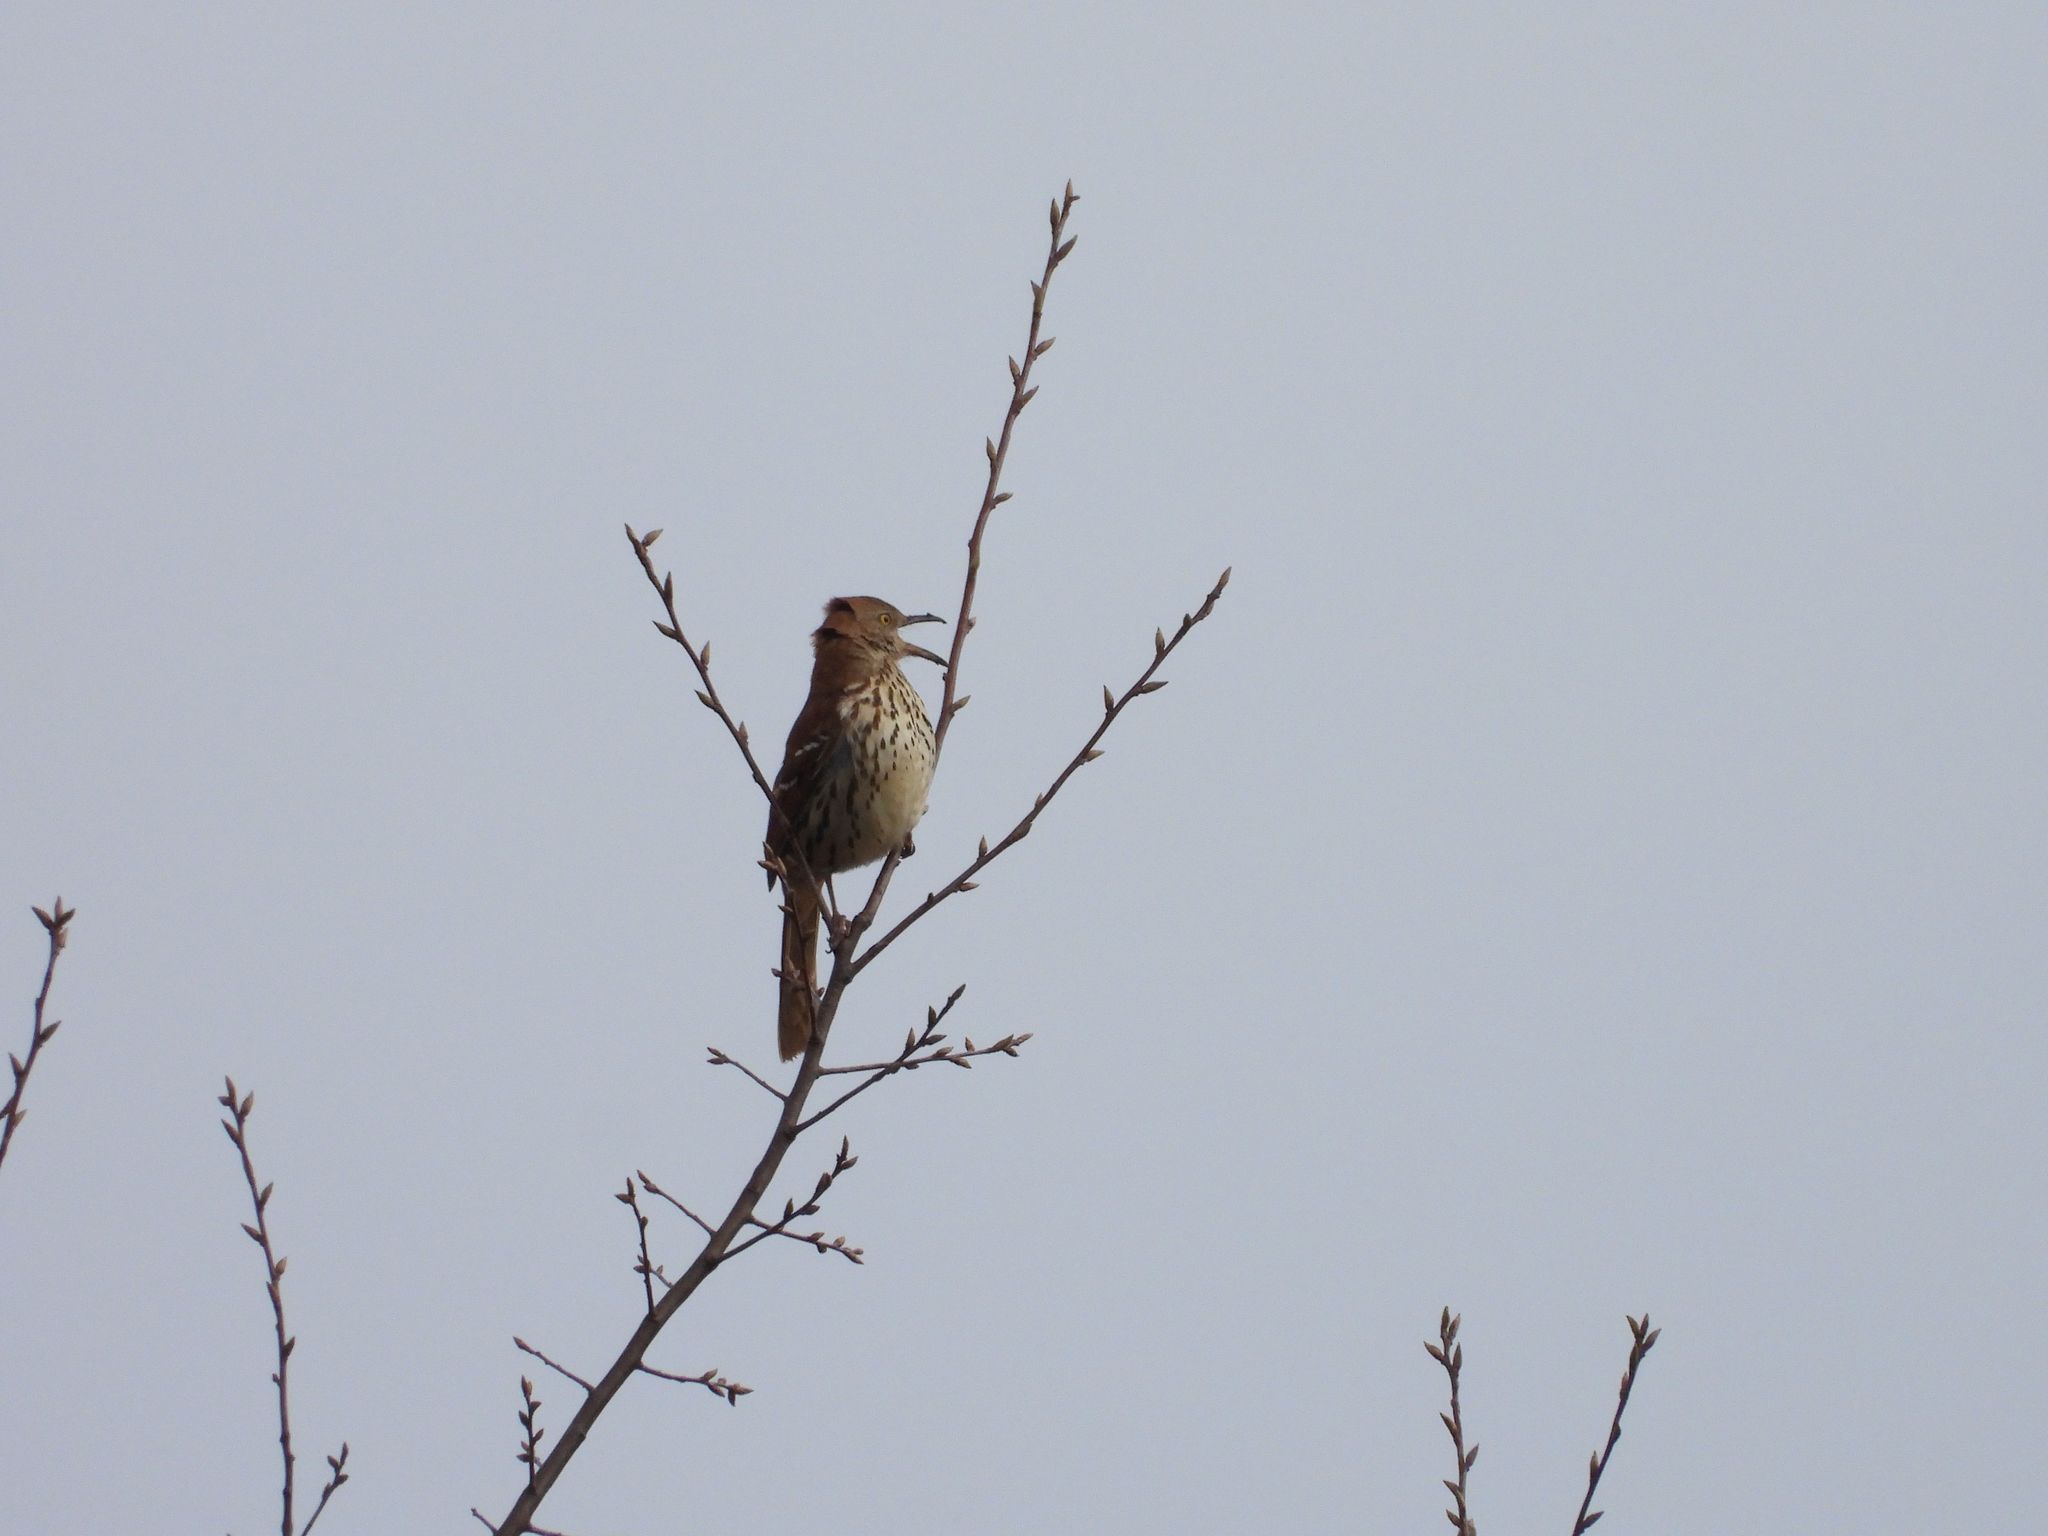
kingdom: Animalia
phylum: Chordata
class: Aves
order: Passeriformes
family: Mimidae
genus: Toxostoma
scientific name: Toxostoma rufum
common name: Brown thrasher
